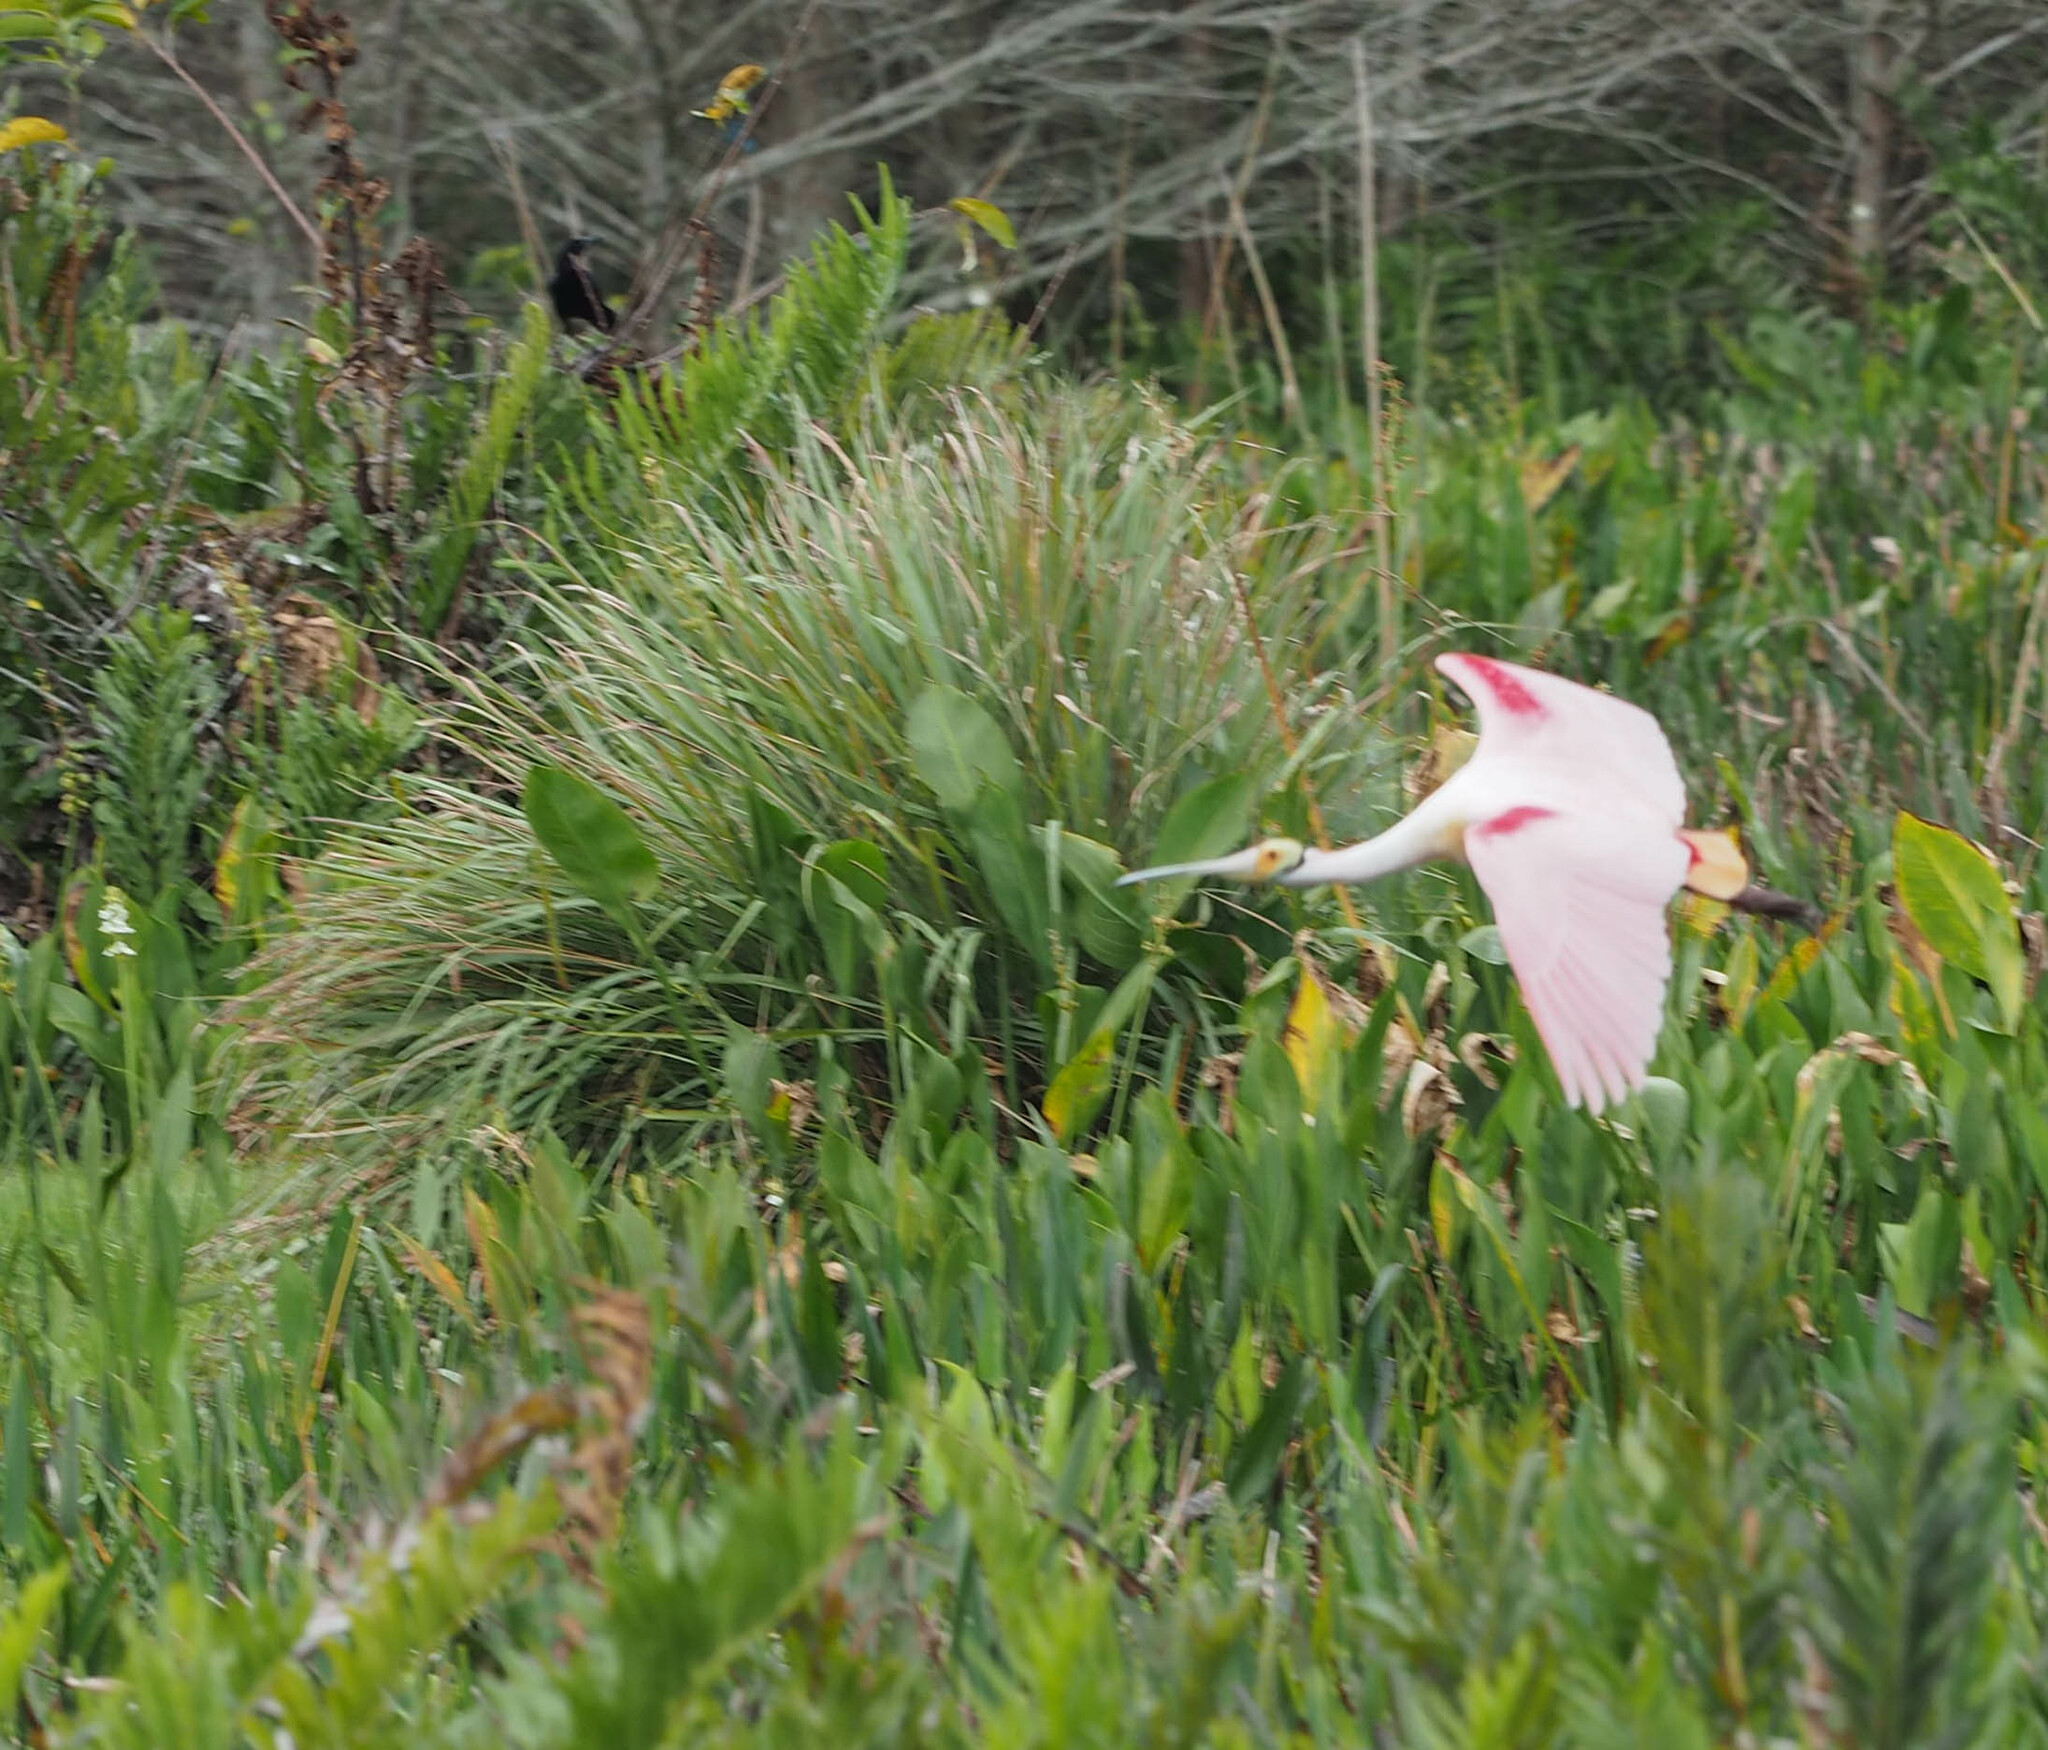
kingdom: Animalia
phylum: Chordata
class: Aves
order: Pelecaniformes
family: Threskiornithidae
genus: Platalea
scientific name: Platalea ajaja
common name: Roseate spoonbill
